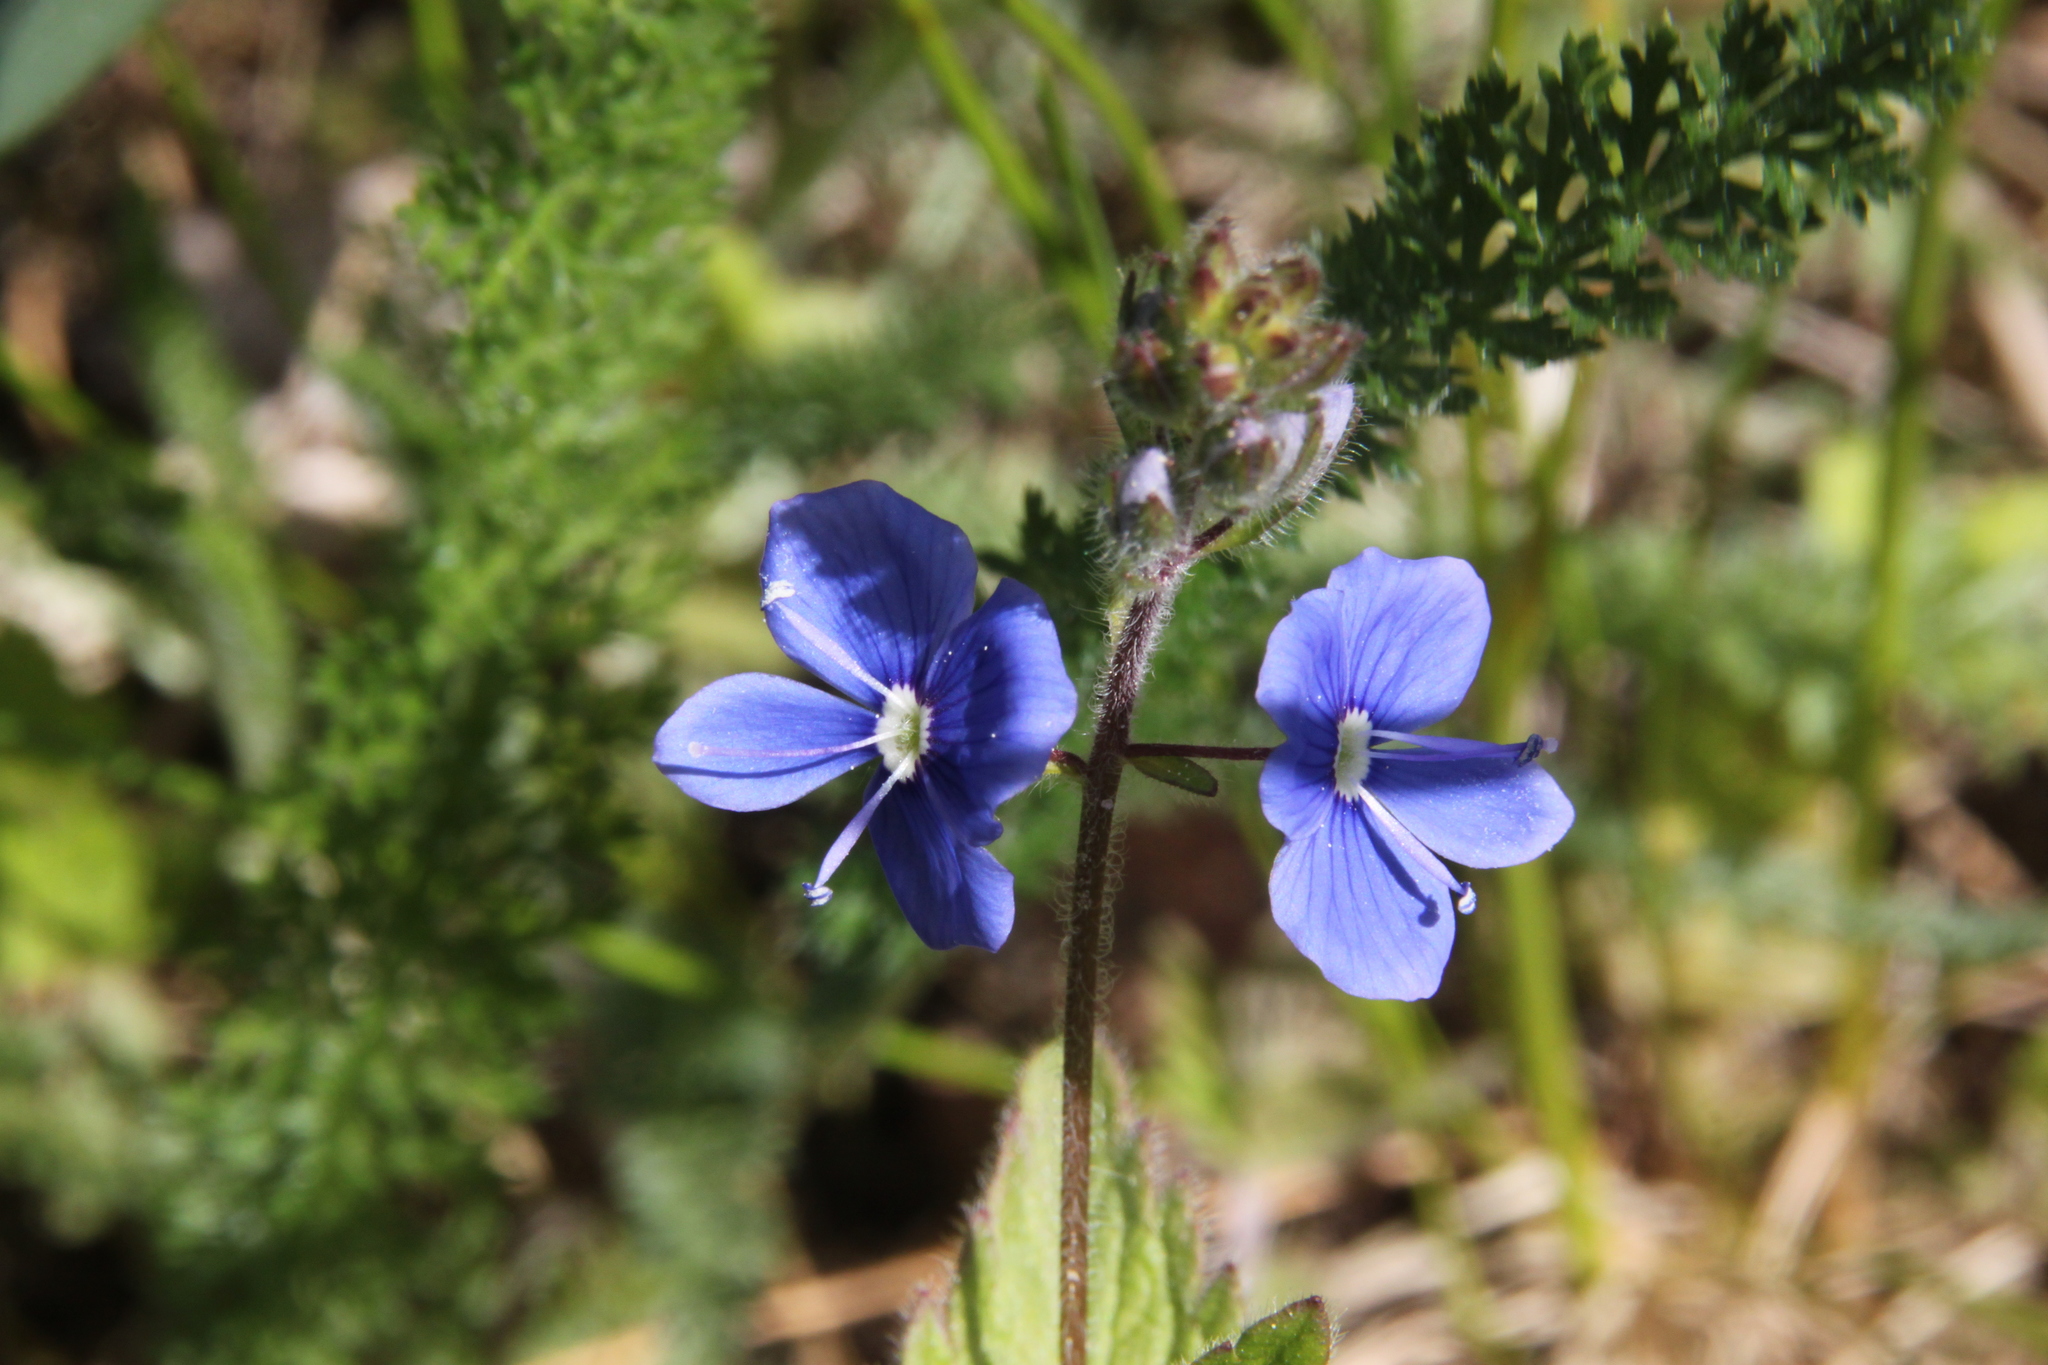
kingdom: Plantae
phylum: Tracheophyta
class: Magnoliopsida
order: Lamiales
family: Plantaginaceae
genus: Veronica
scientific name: Veronica chamaedrys
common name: Germander speedwell
